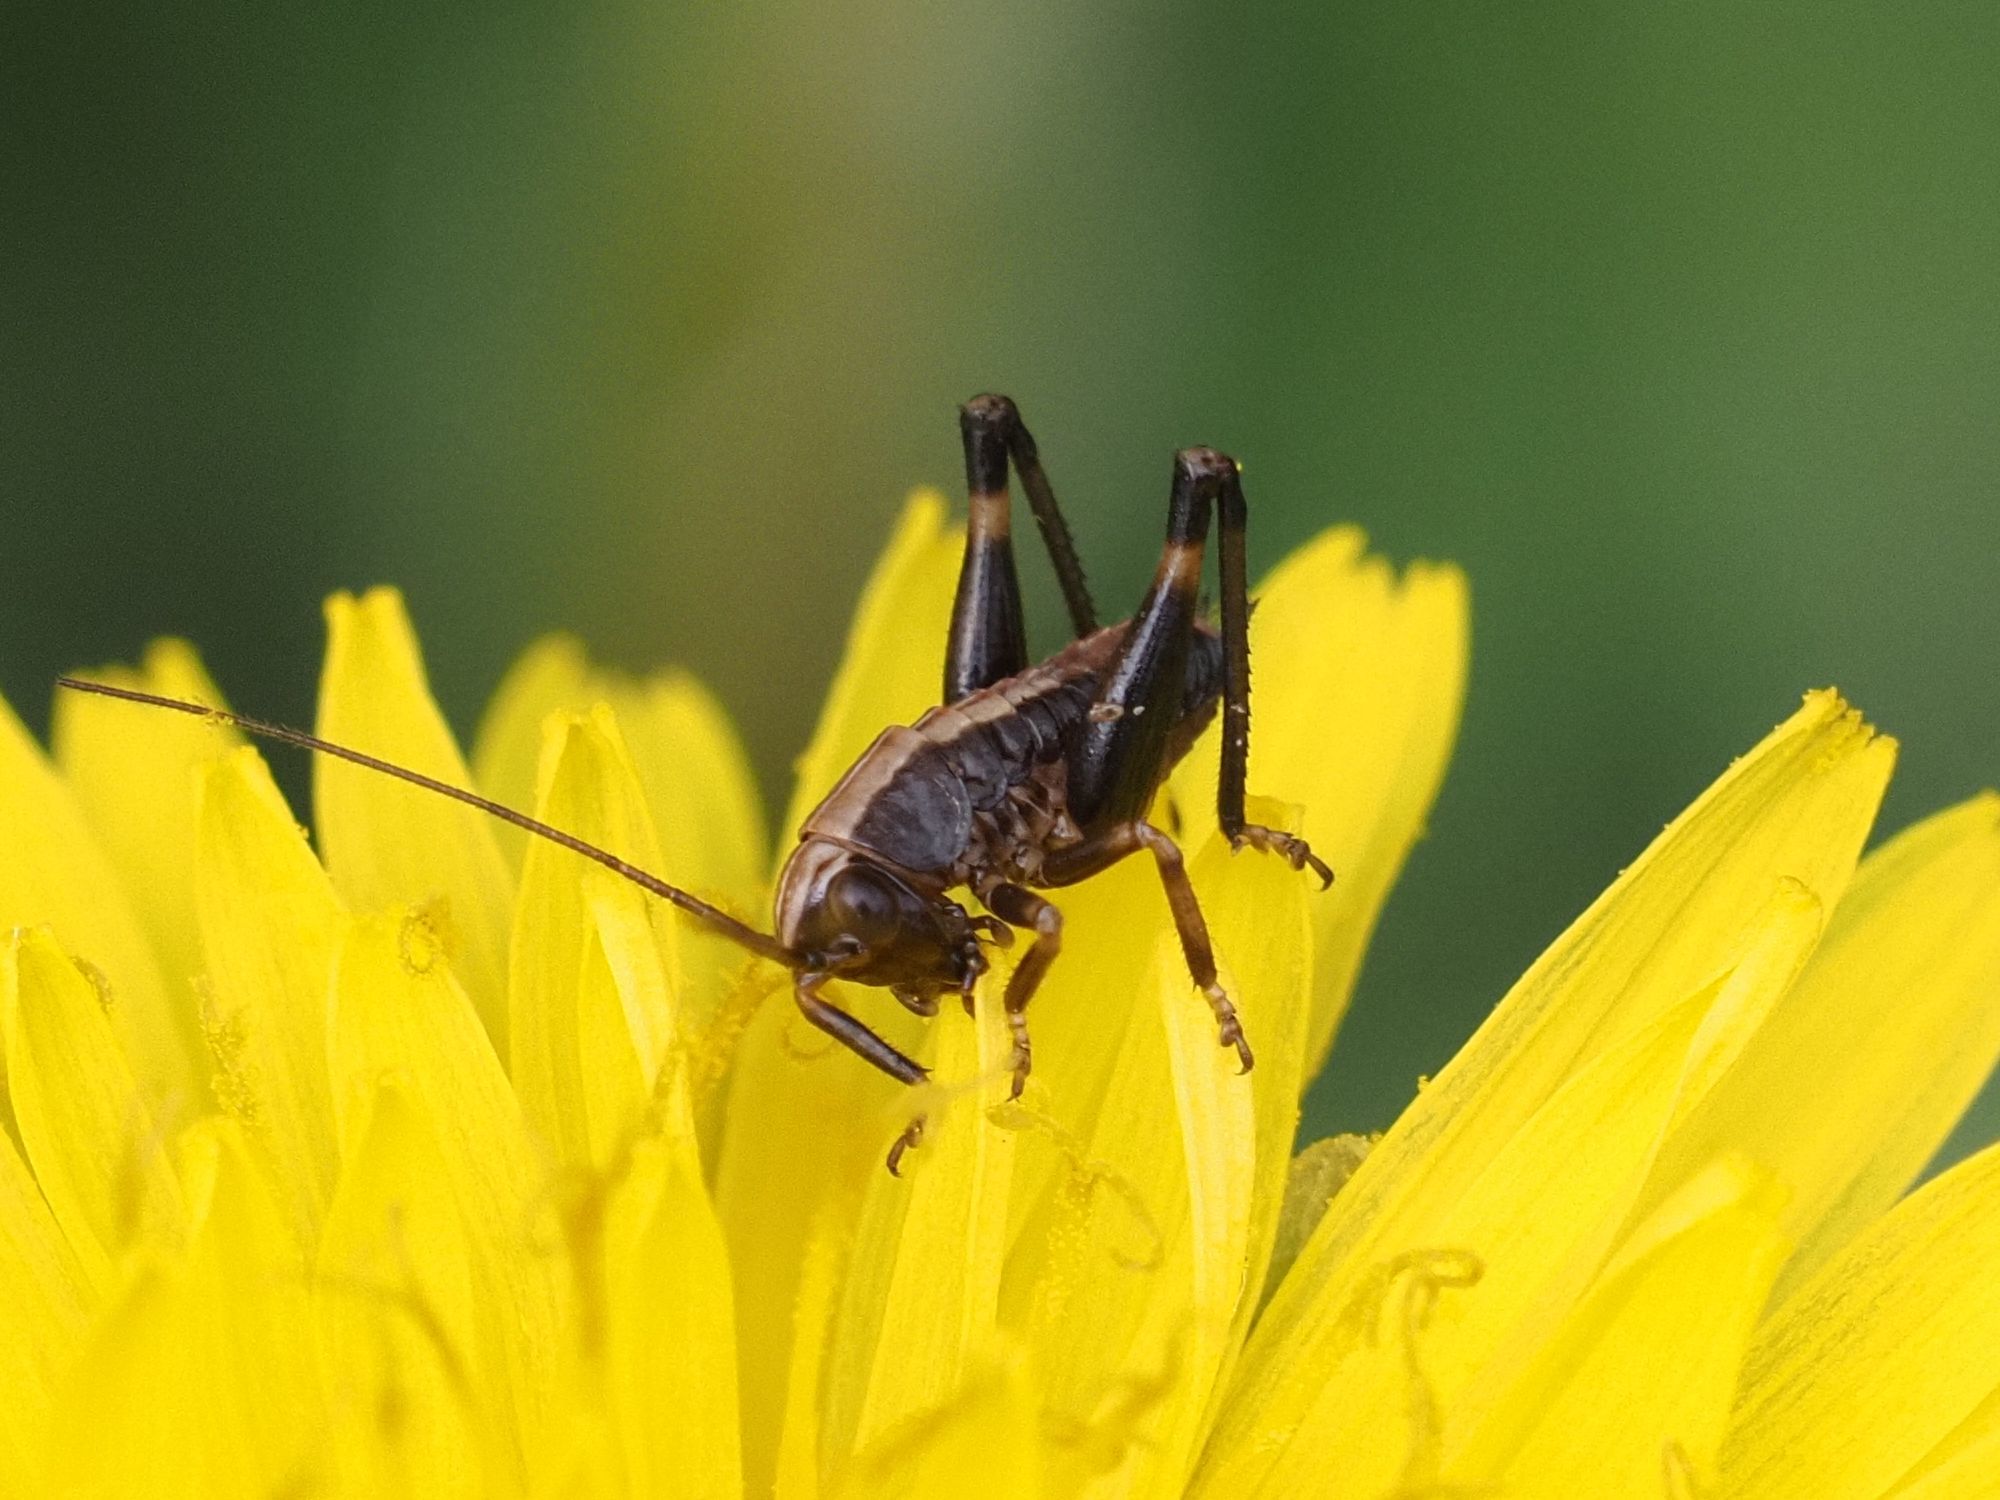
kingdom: Animalia
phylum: Arthropoda
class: Insecta
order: Orthoptera
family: Tettigoniidae
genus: Pholidoptera
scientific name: Pholidoptera griseoaptera
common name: Dark bush-cricket
